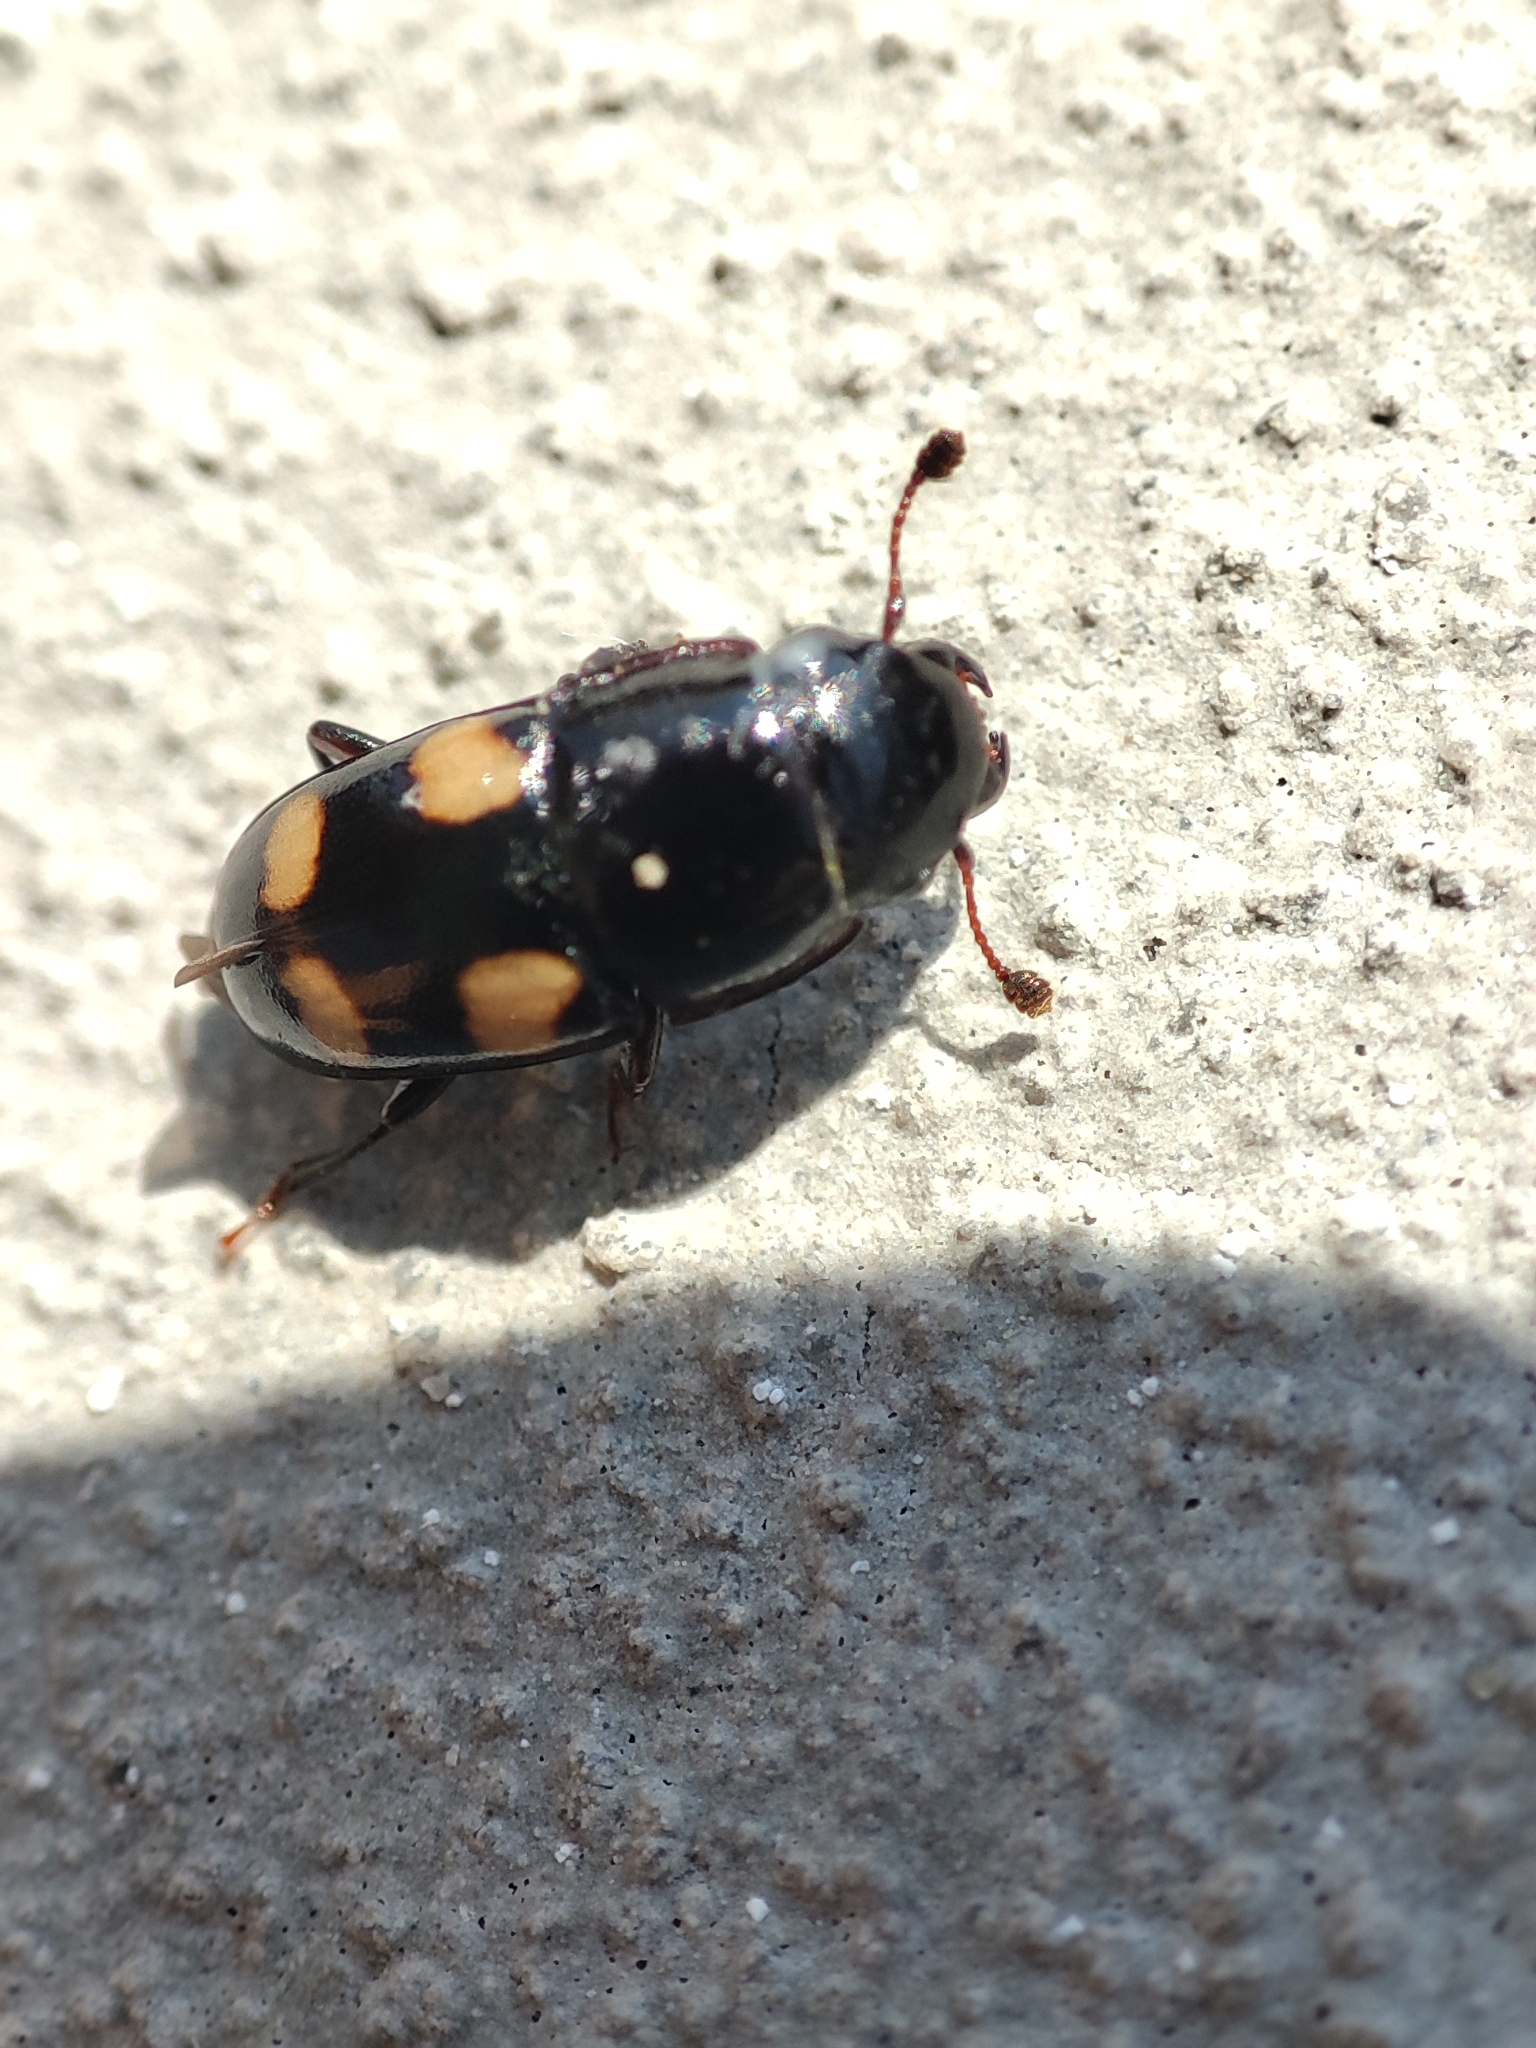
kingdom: Animalia
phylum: Arthropoda
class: Insecta
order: Coleoptera
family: Nitidulidae
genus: Glischrochilus
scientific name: Glischrochilus quadrisignatus
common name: Picnic beetle
